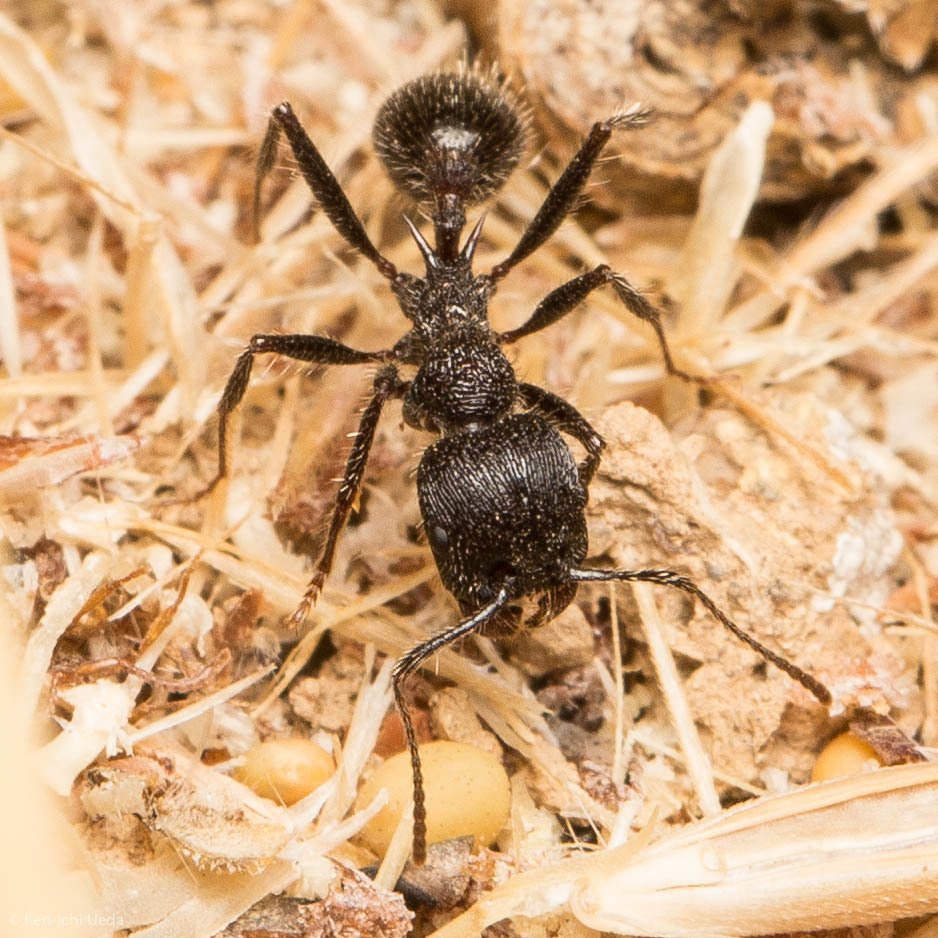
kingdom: Animalia
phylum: Arthropoda
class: Insecta
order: Hymenoptera
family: Formicidae
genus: Veromessor
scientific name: Veromessor andrei
